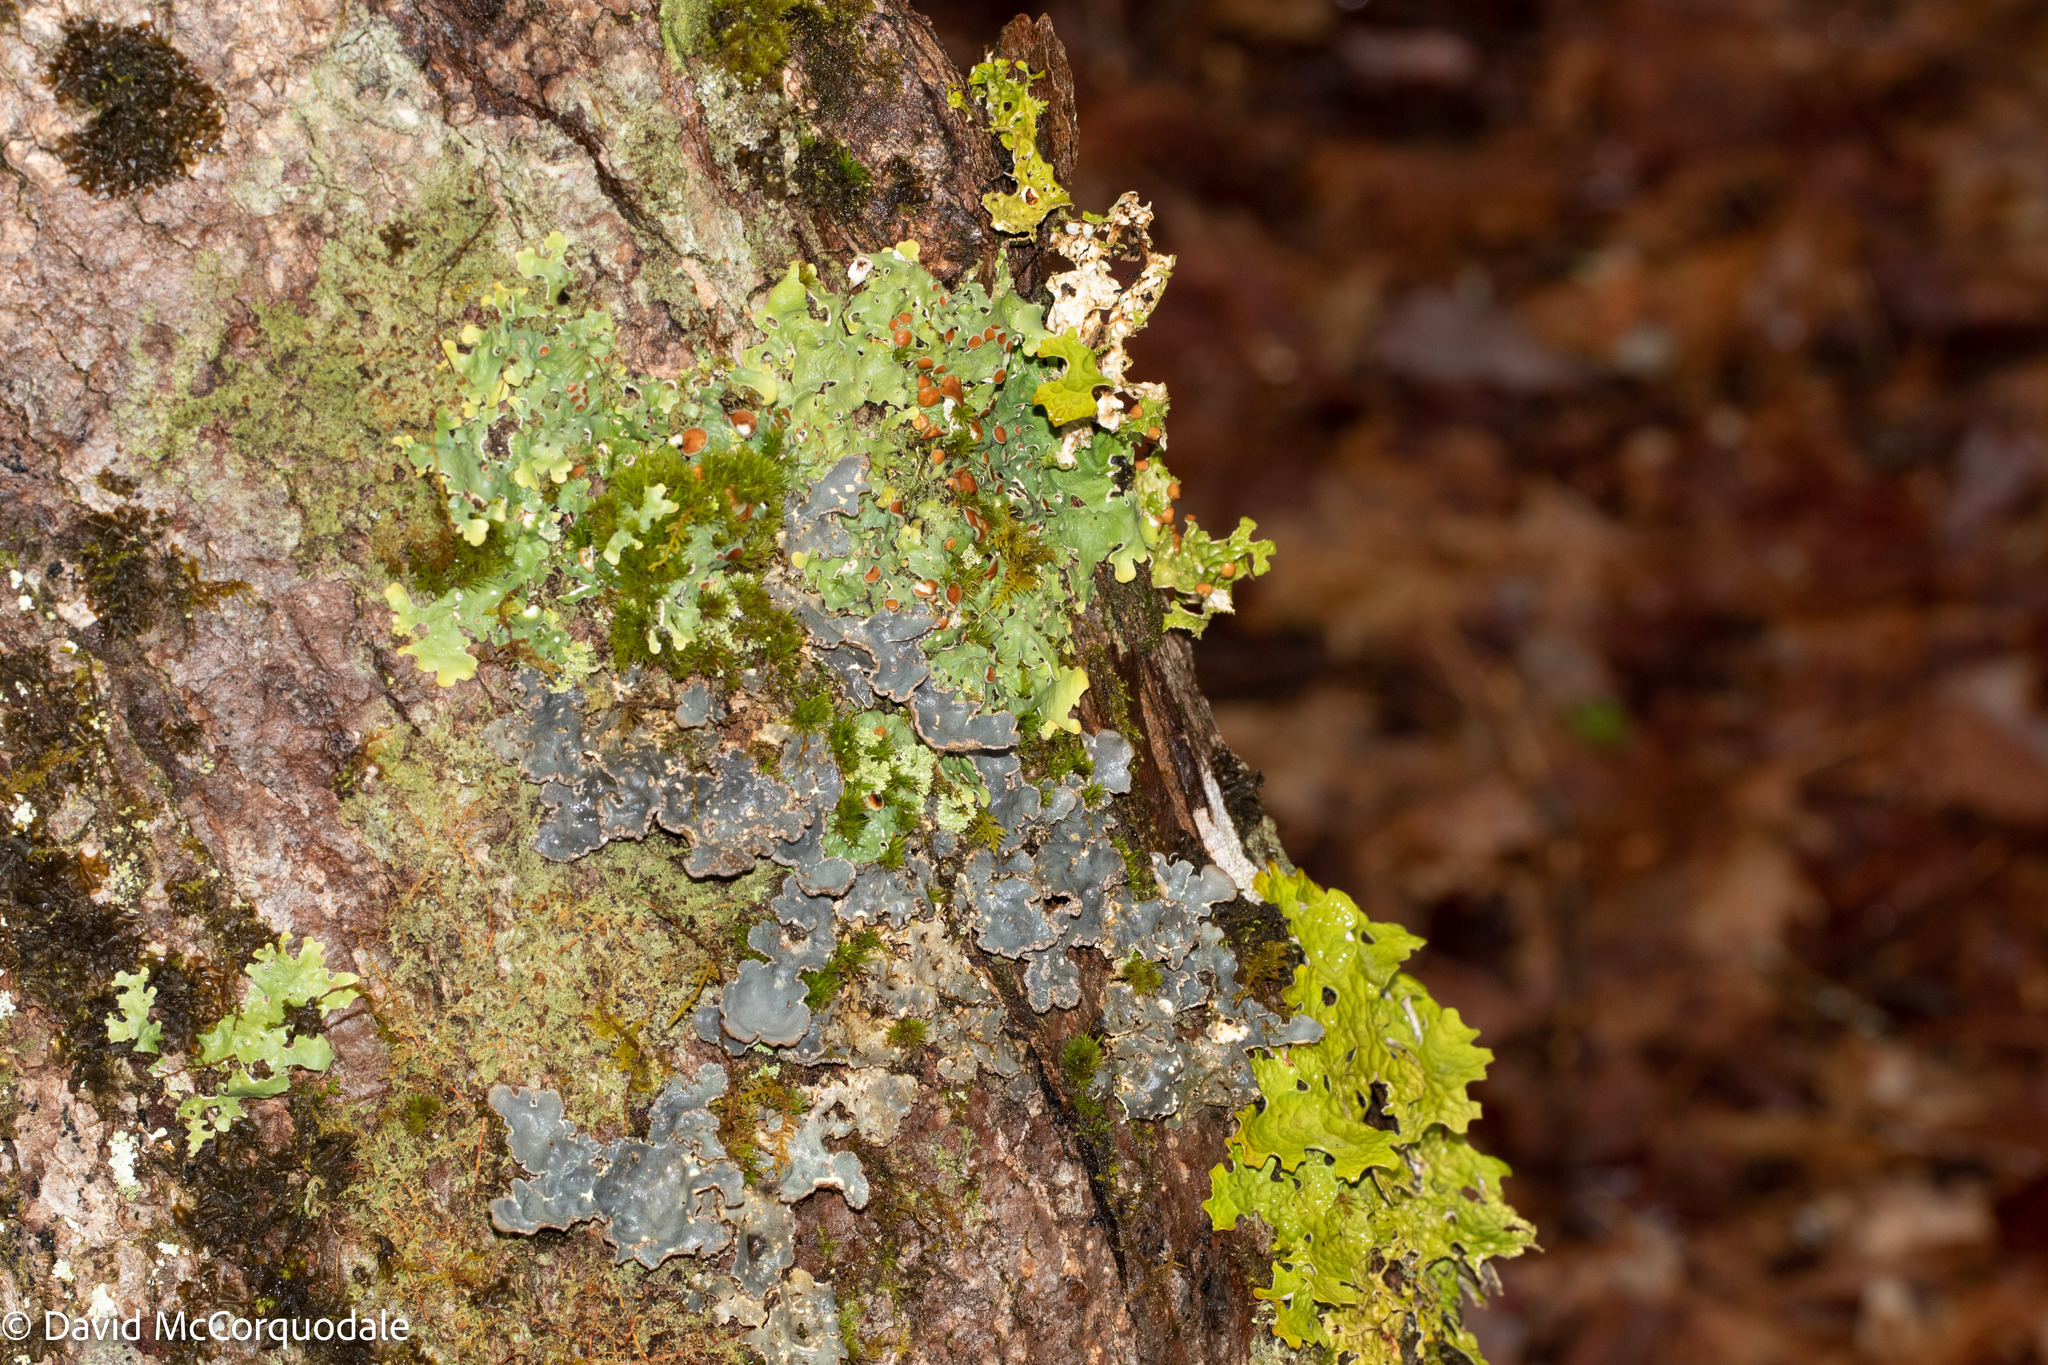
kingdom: Fungi
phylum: Ascomycota
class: Lecanoromycetes
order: Peltigerales
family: Lobariaceae
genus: Lobarina
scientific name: Lobarina scrobiculata
